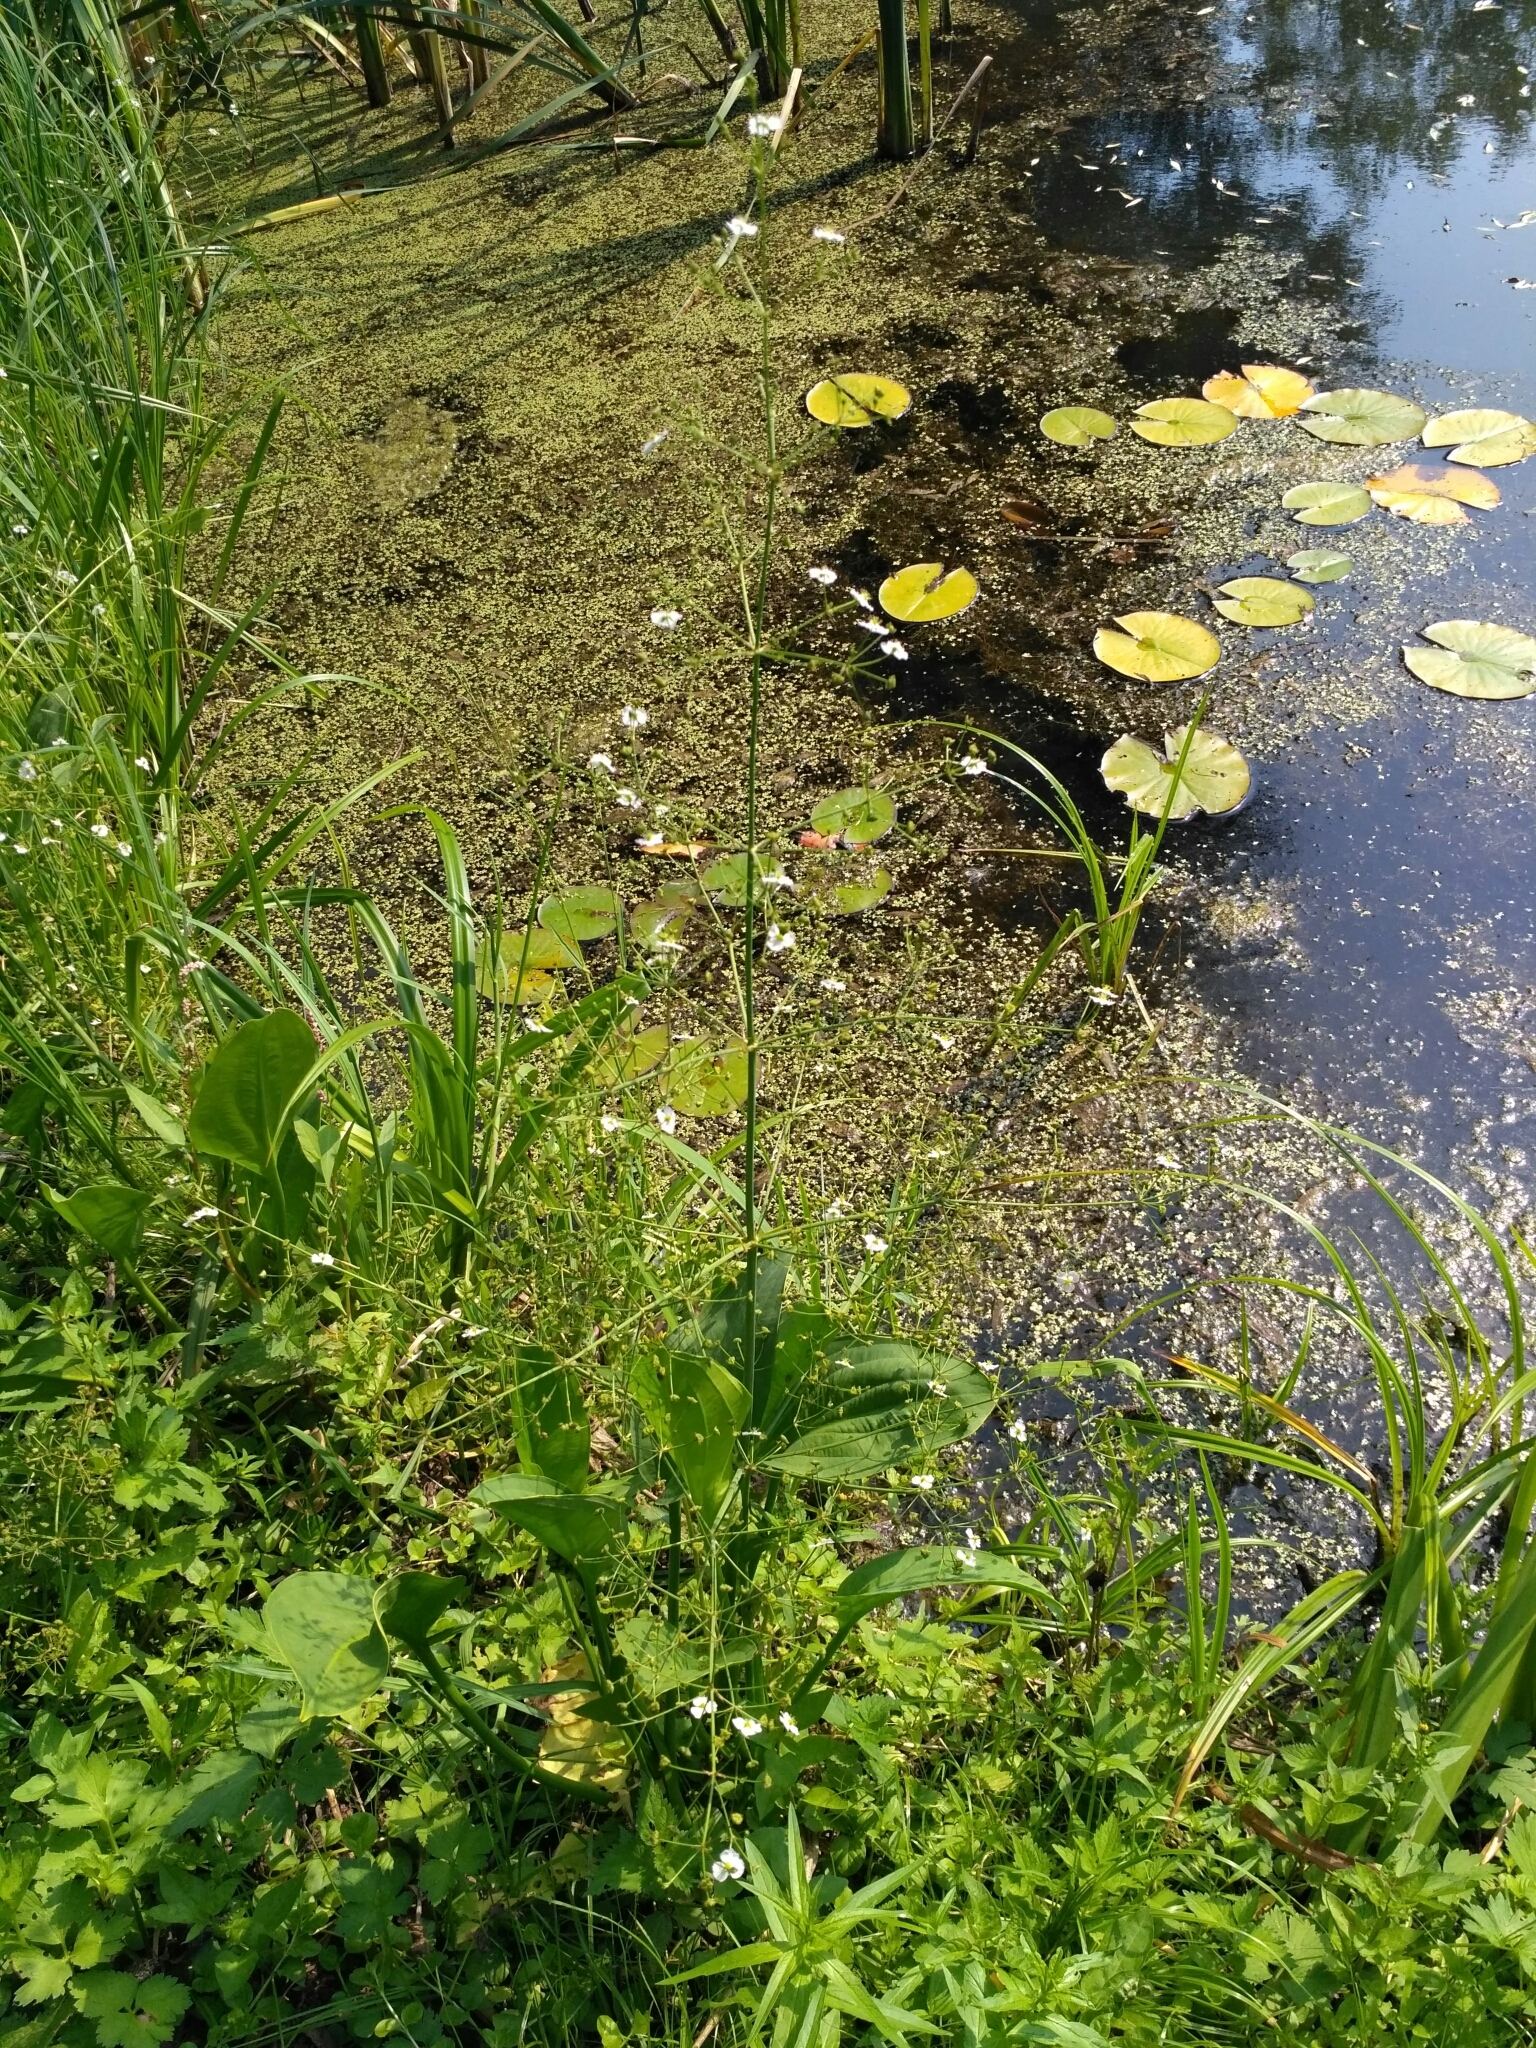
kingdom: Plantae
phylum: Tracheophyta
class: Liliopsida
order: Alismatales
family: Alismataceae
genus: Alisma
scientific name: Alisma plantago-aquatica
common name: Water-plantain
